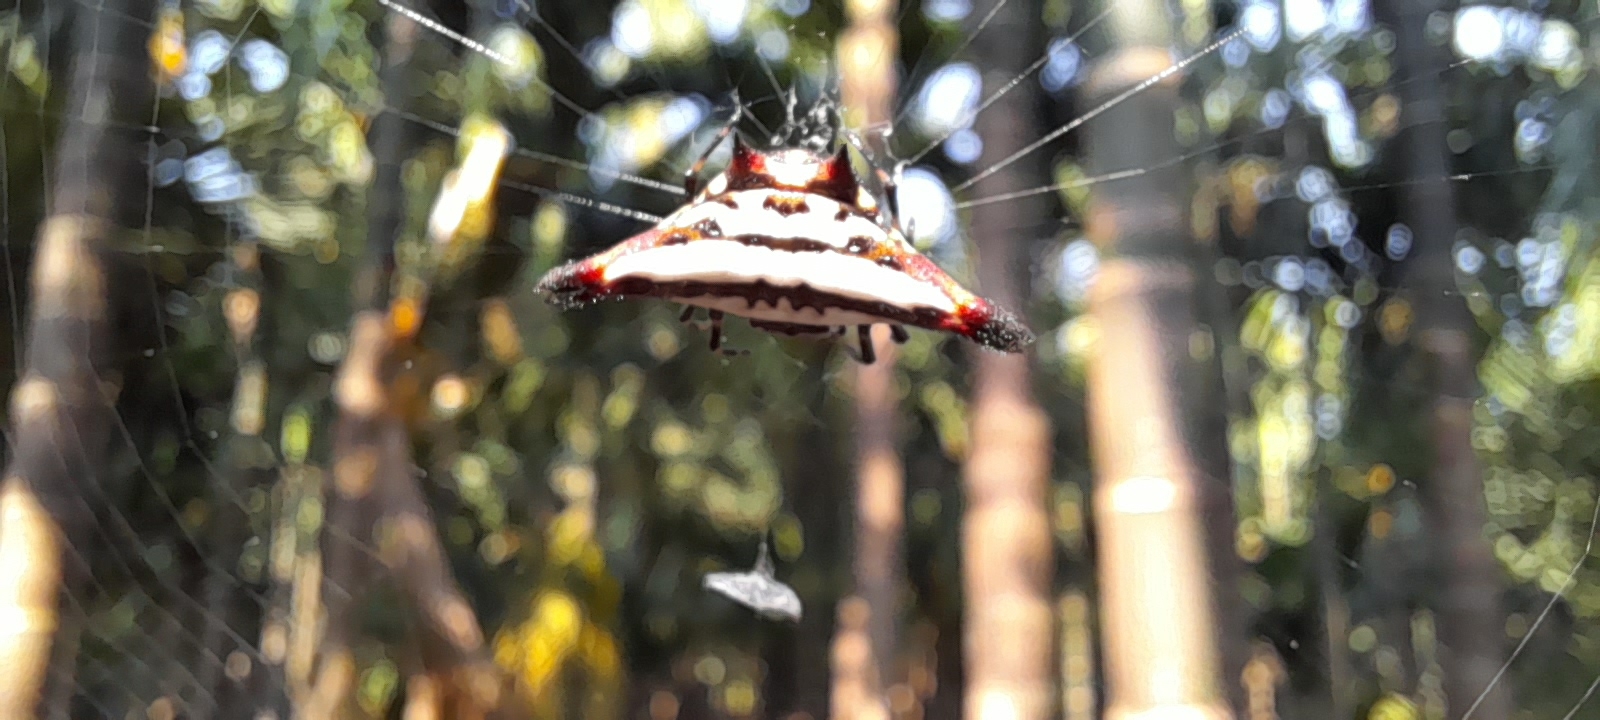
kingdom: Animalia
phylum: Arthropoda
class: Arachnida
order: Araneae
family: Araneidae
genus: Gasteracantha
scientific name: Gasteracantha geminata
